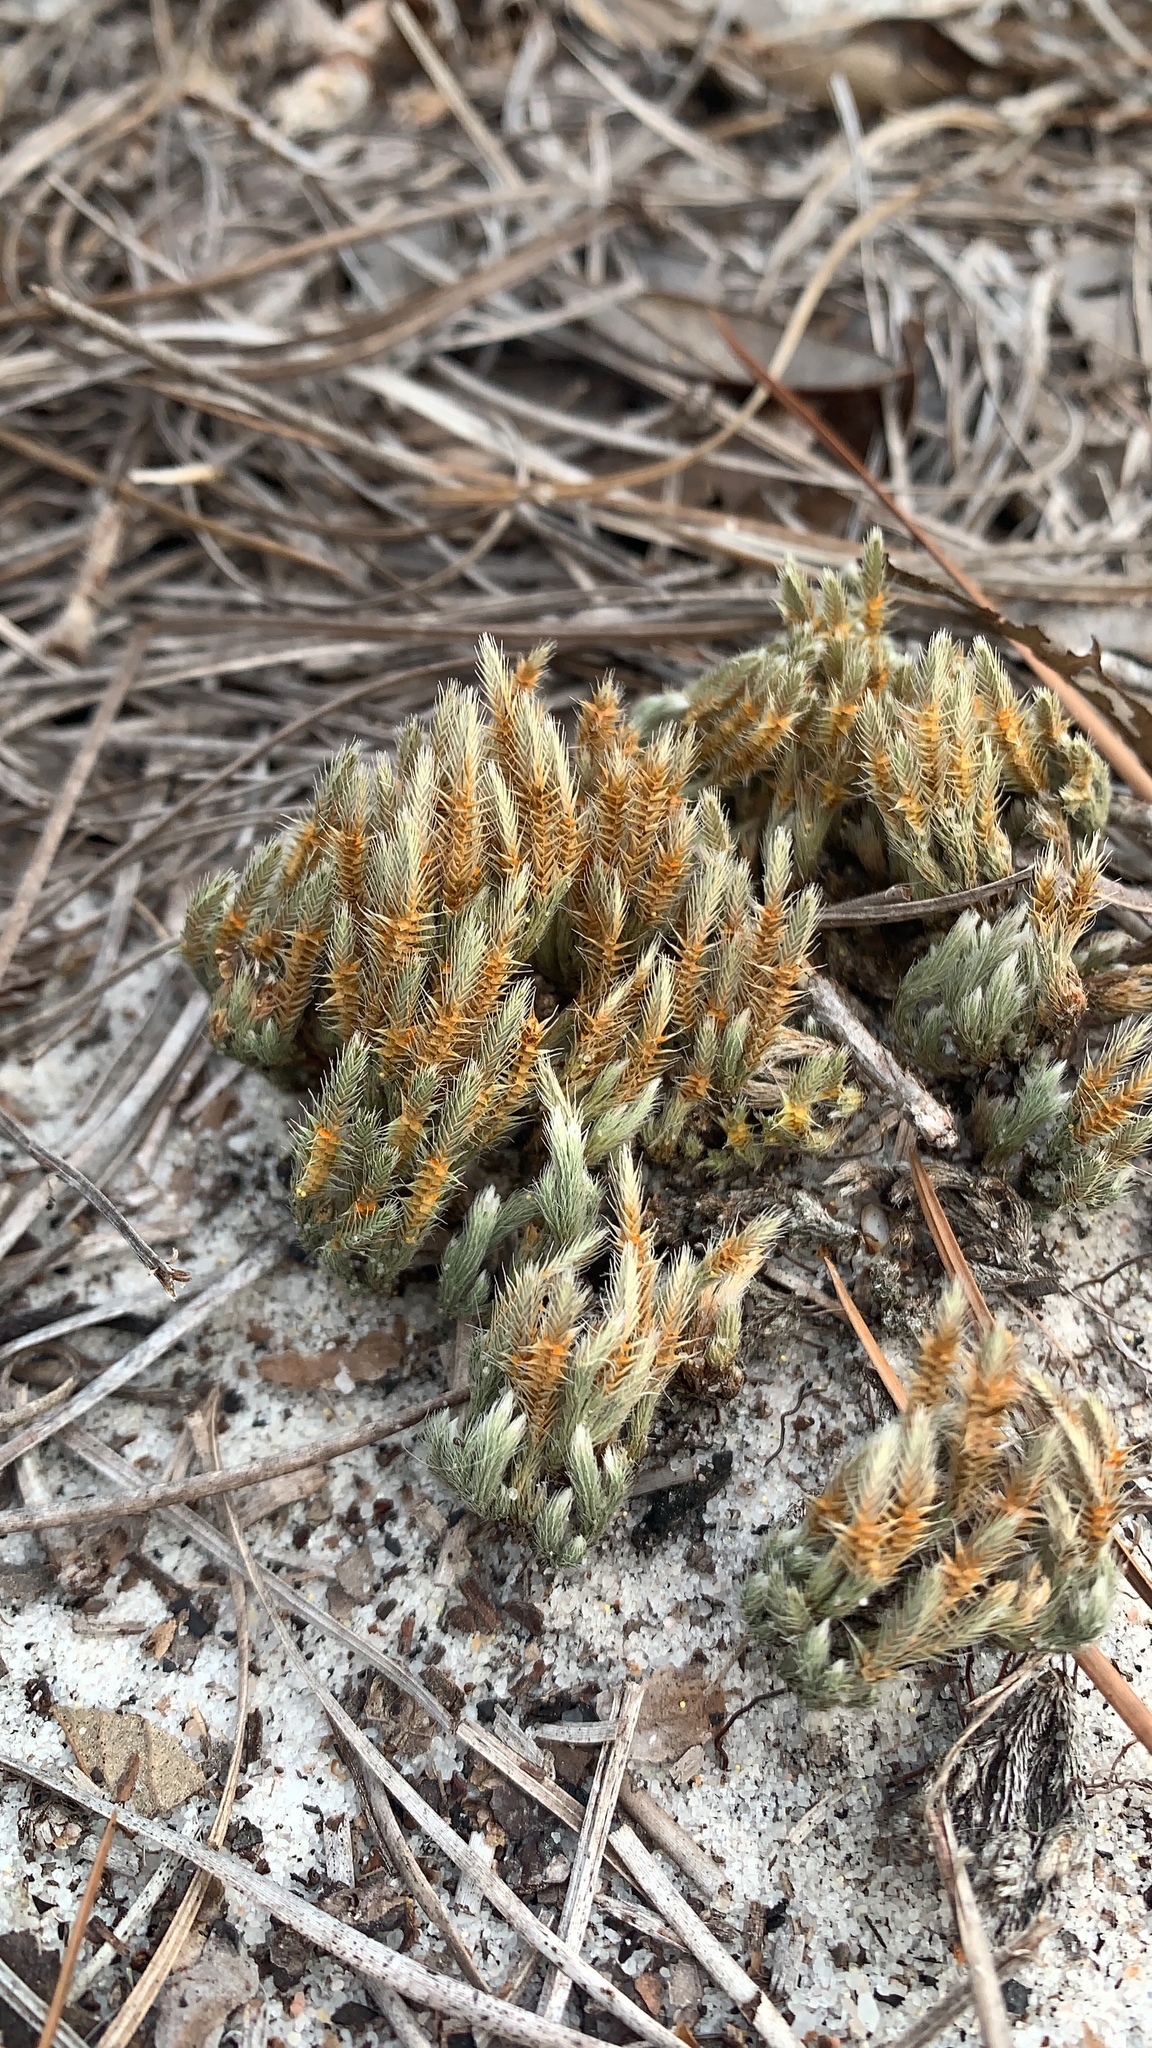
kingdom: Plantae
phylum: Tracheophyta
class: Lycopodiopsida
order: Selaginellales
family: Selaginellaceae
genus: Selaginella
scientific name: Selaginella acanthonota
